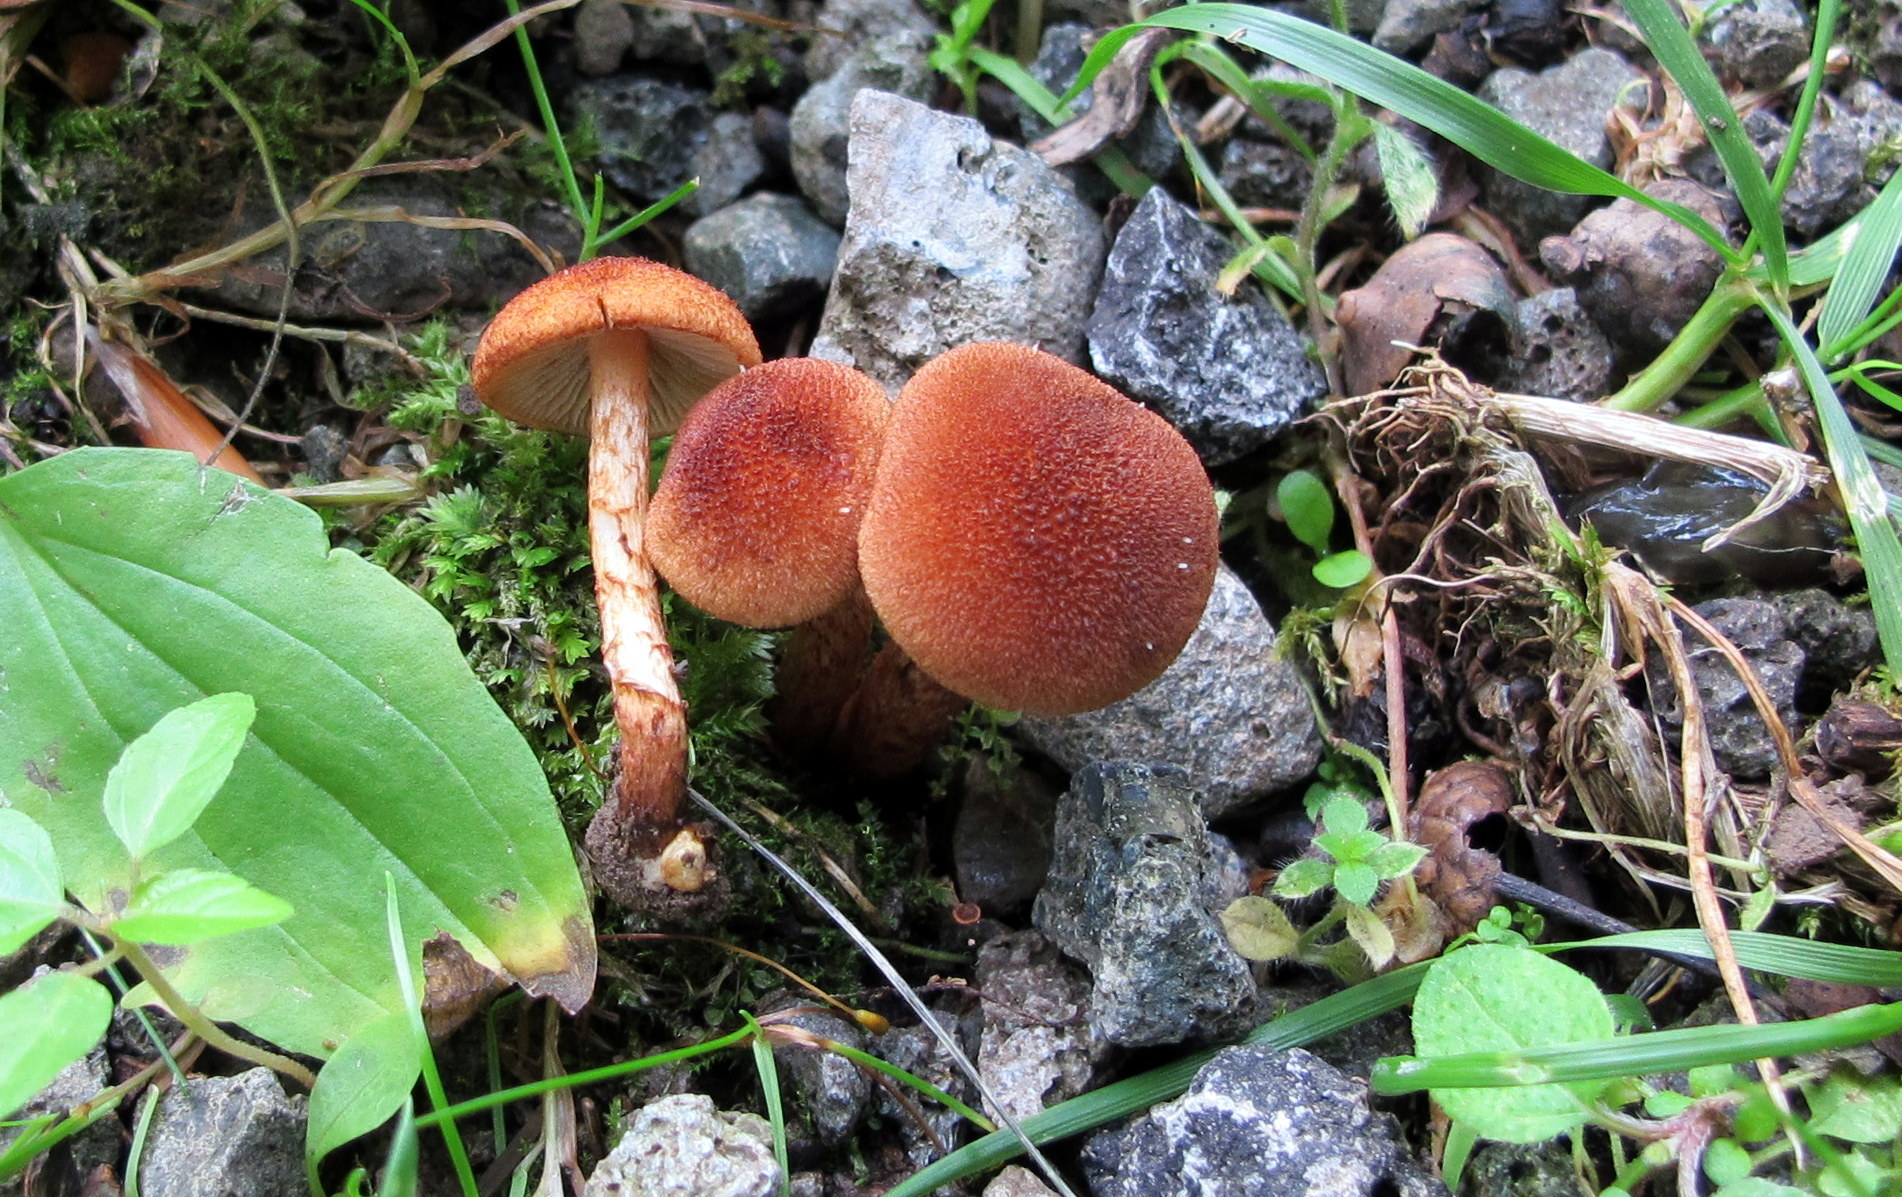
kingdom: Fungi
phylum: Basidiomycota
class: Agaricomycetes
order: Agaricales
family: Inocybaceae
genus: Mallocybe
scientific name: Mallocybe unicolor
